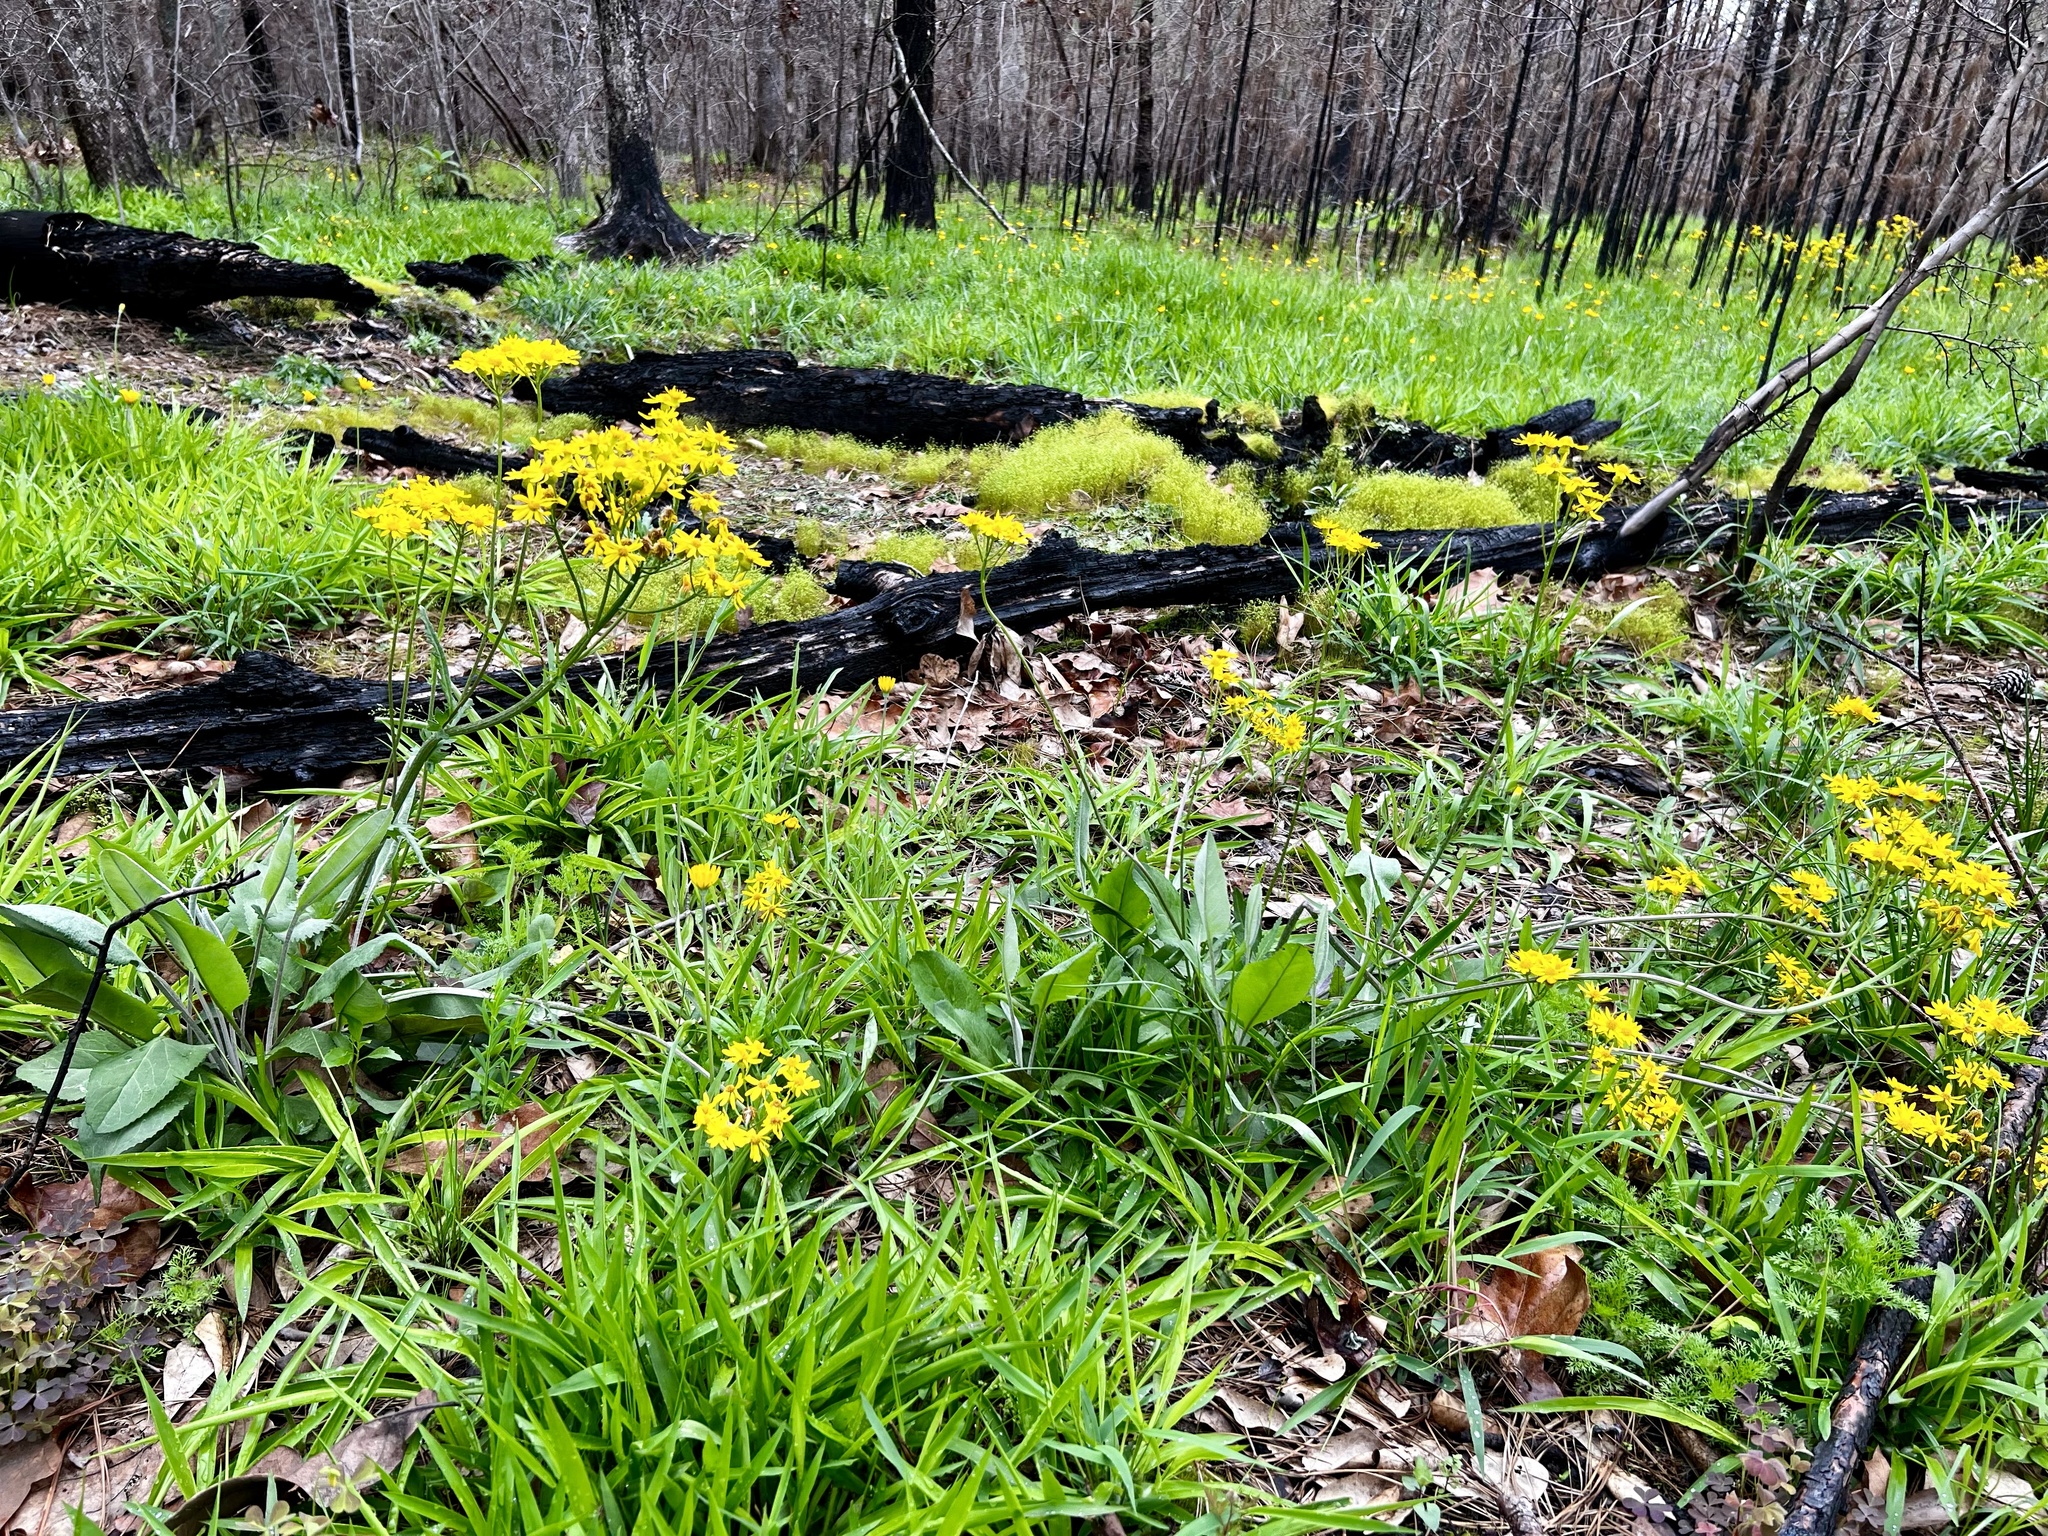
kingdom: Plantae
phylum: Tracheophyta
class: Magnoliopsida
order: Asterales
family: Asteraceae
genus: Packera
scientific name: Packera dubia
